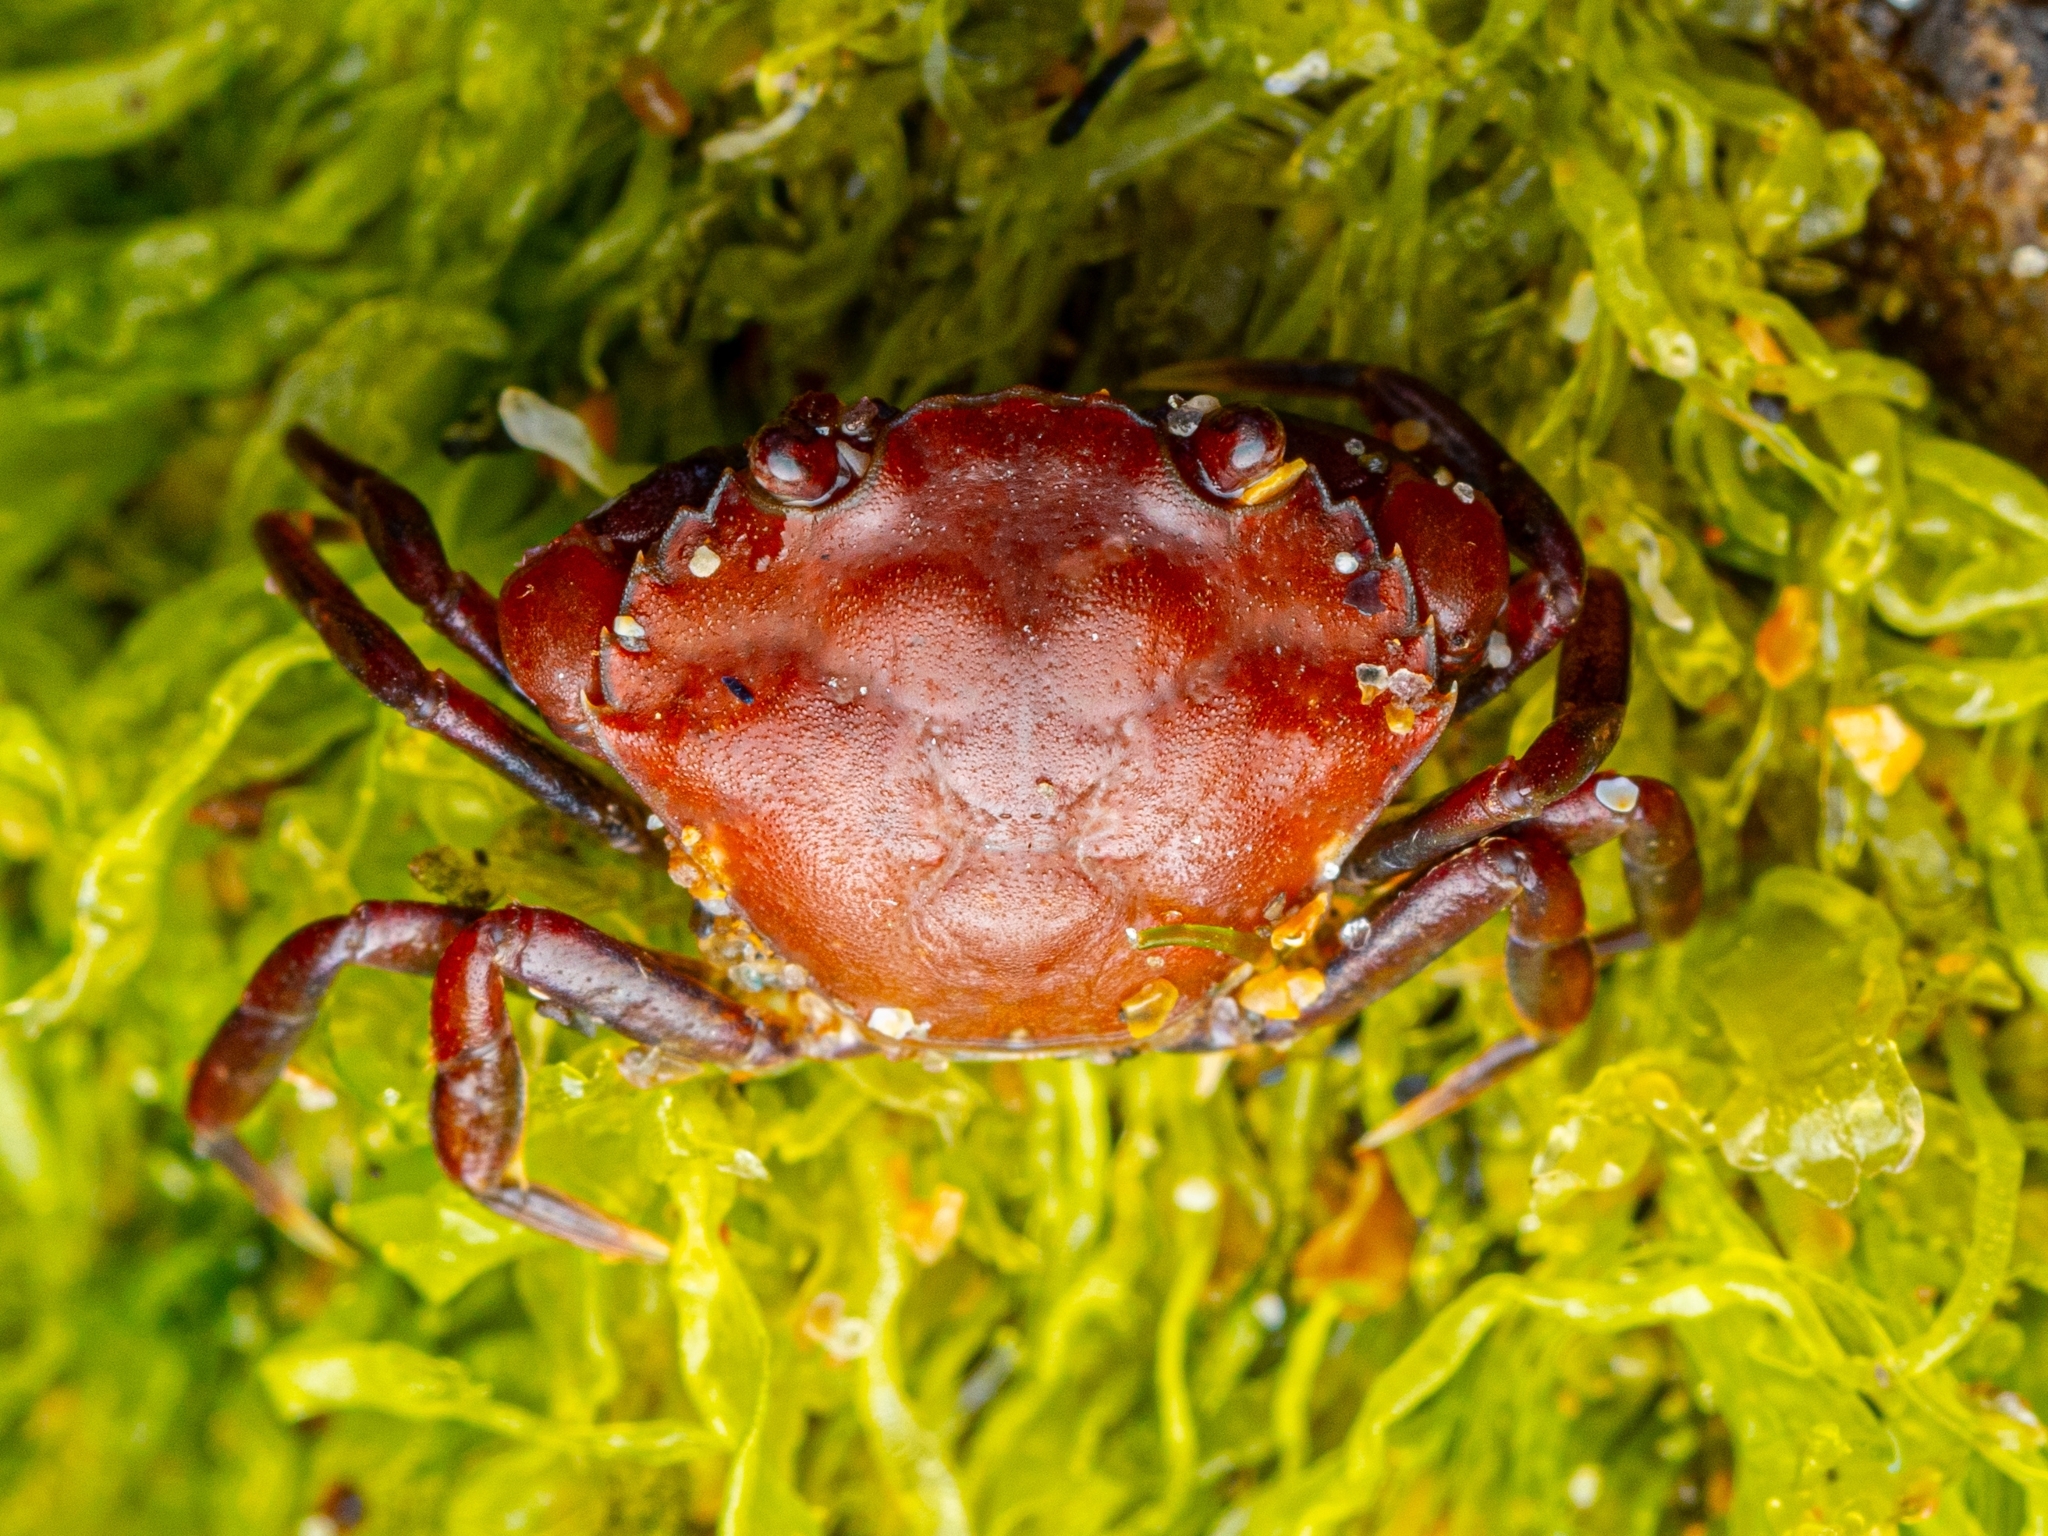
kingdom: Animalia
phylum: Arthropoda
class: Malacostraca
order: Decapoda
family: Carcinidae
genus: Carcinus
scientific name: Carcinus maenas
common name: European green crab
